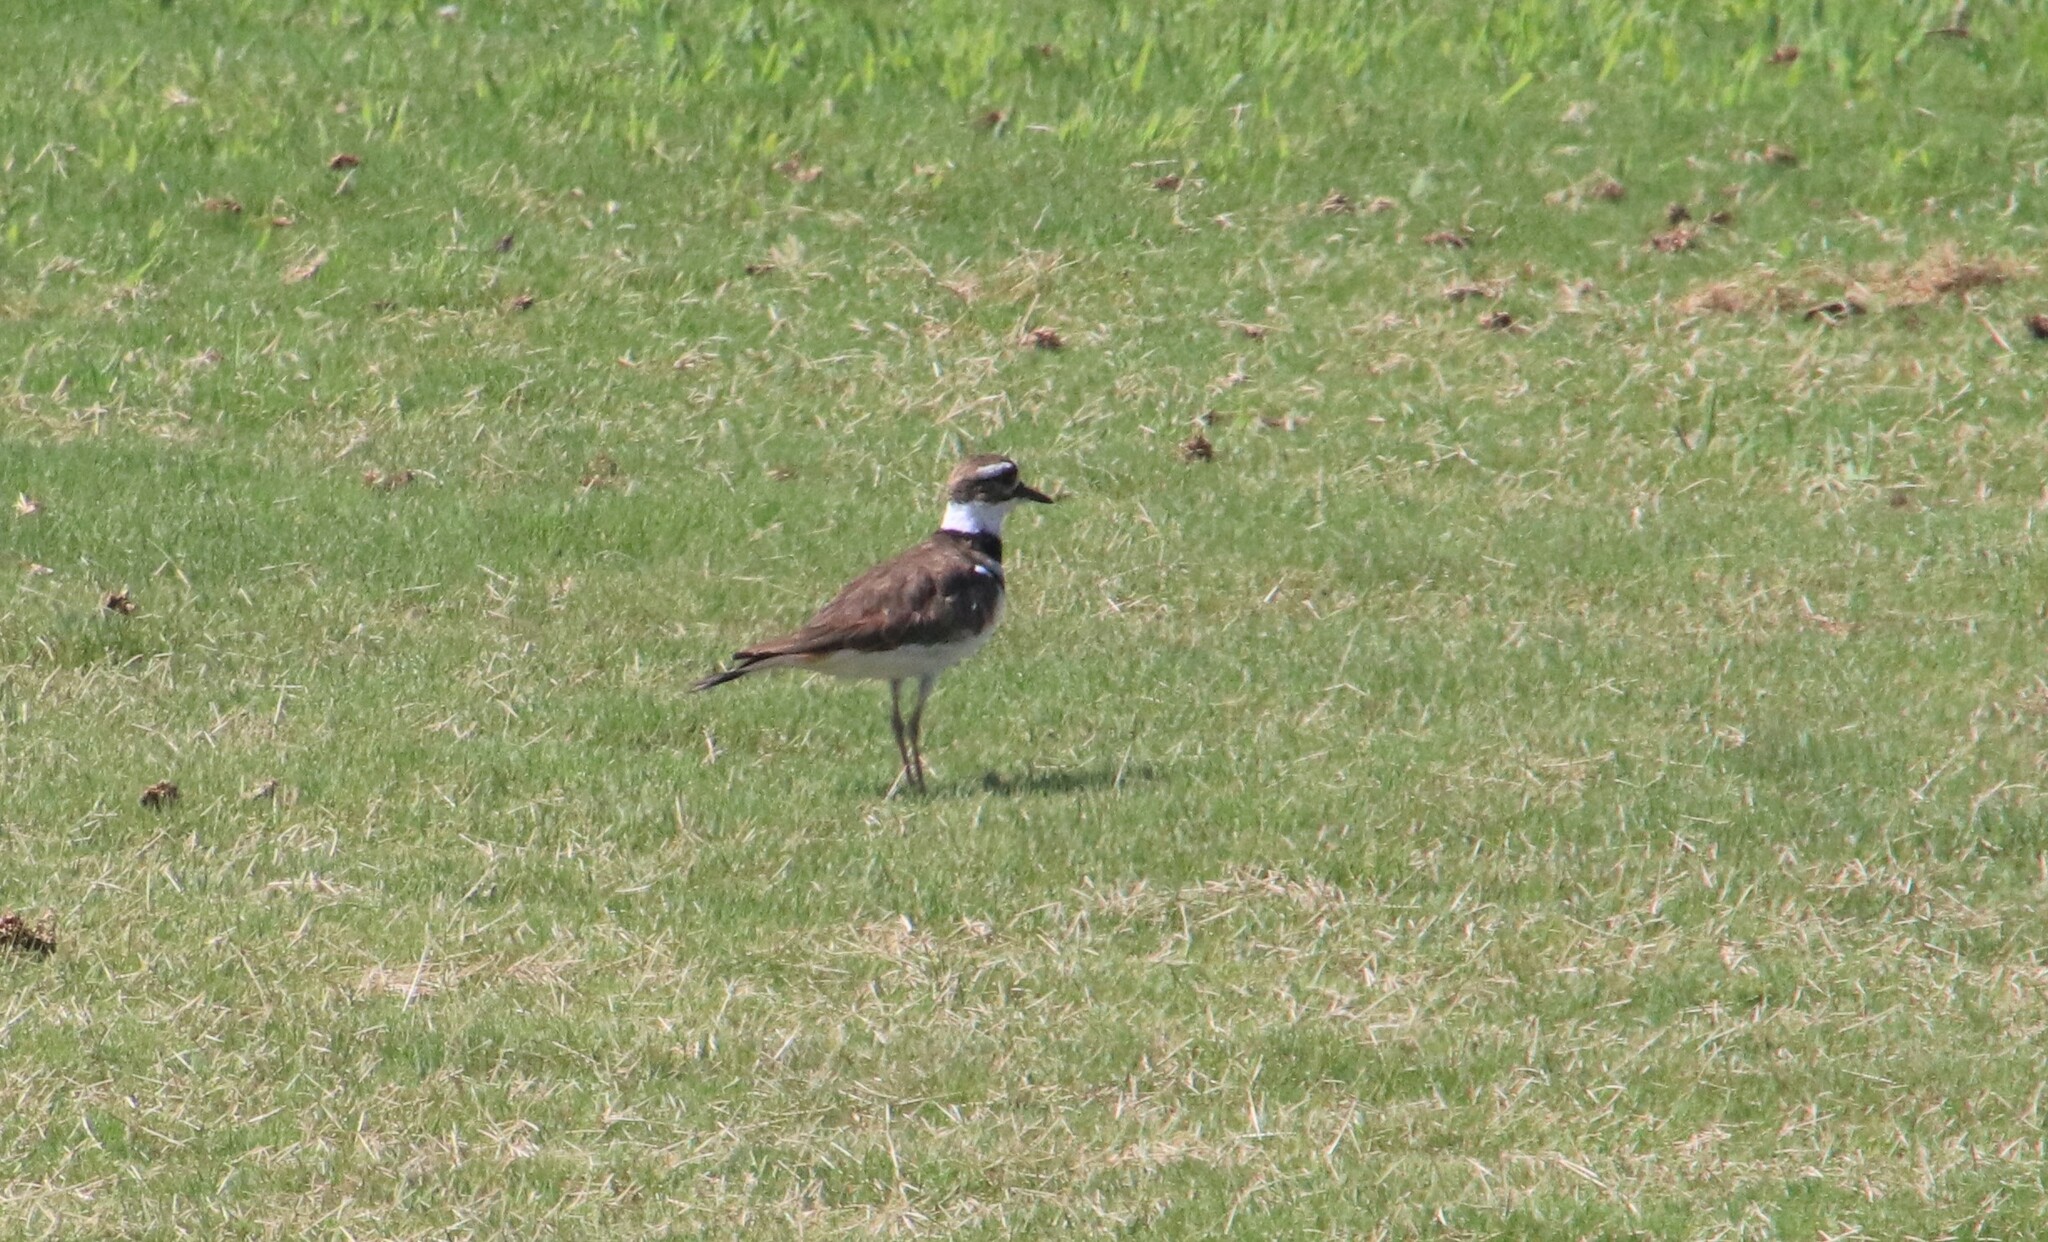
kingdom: Animalia
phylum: Chordata
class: Aves
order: Charadriiformes
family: Charadriidae
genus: Charadrius
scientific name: Charadrius vociferus
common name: Killdeer
